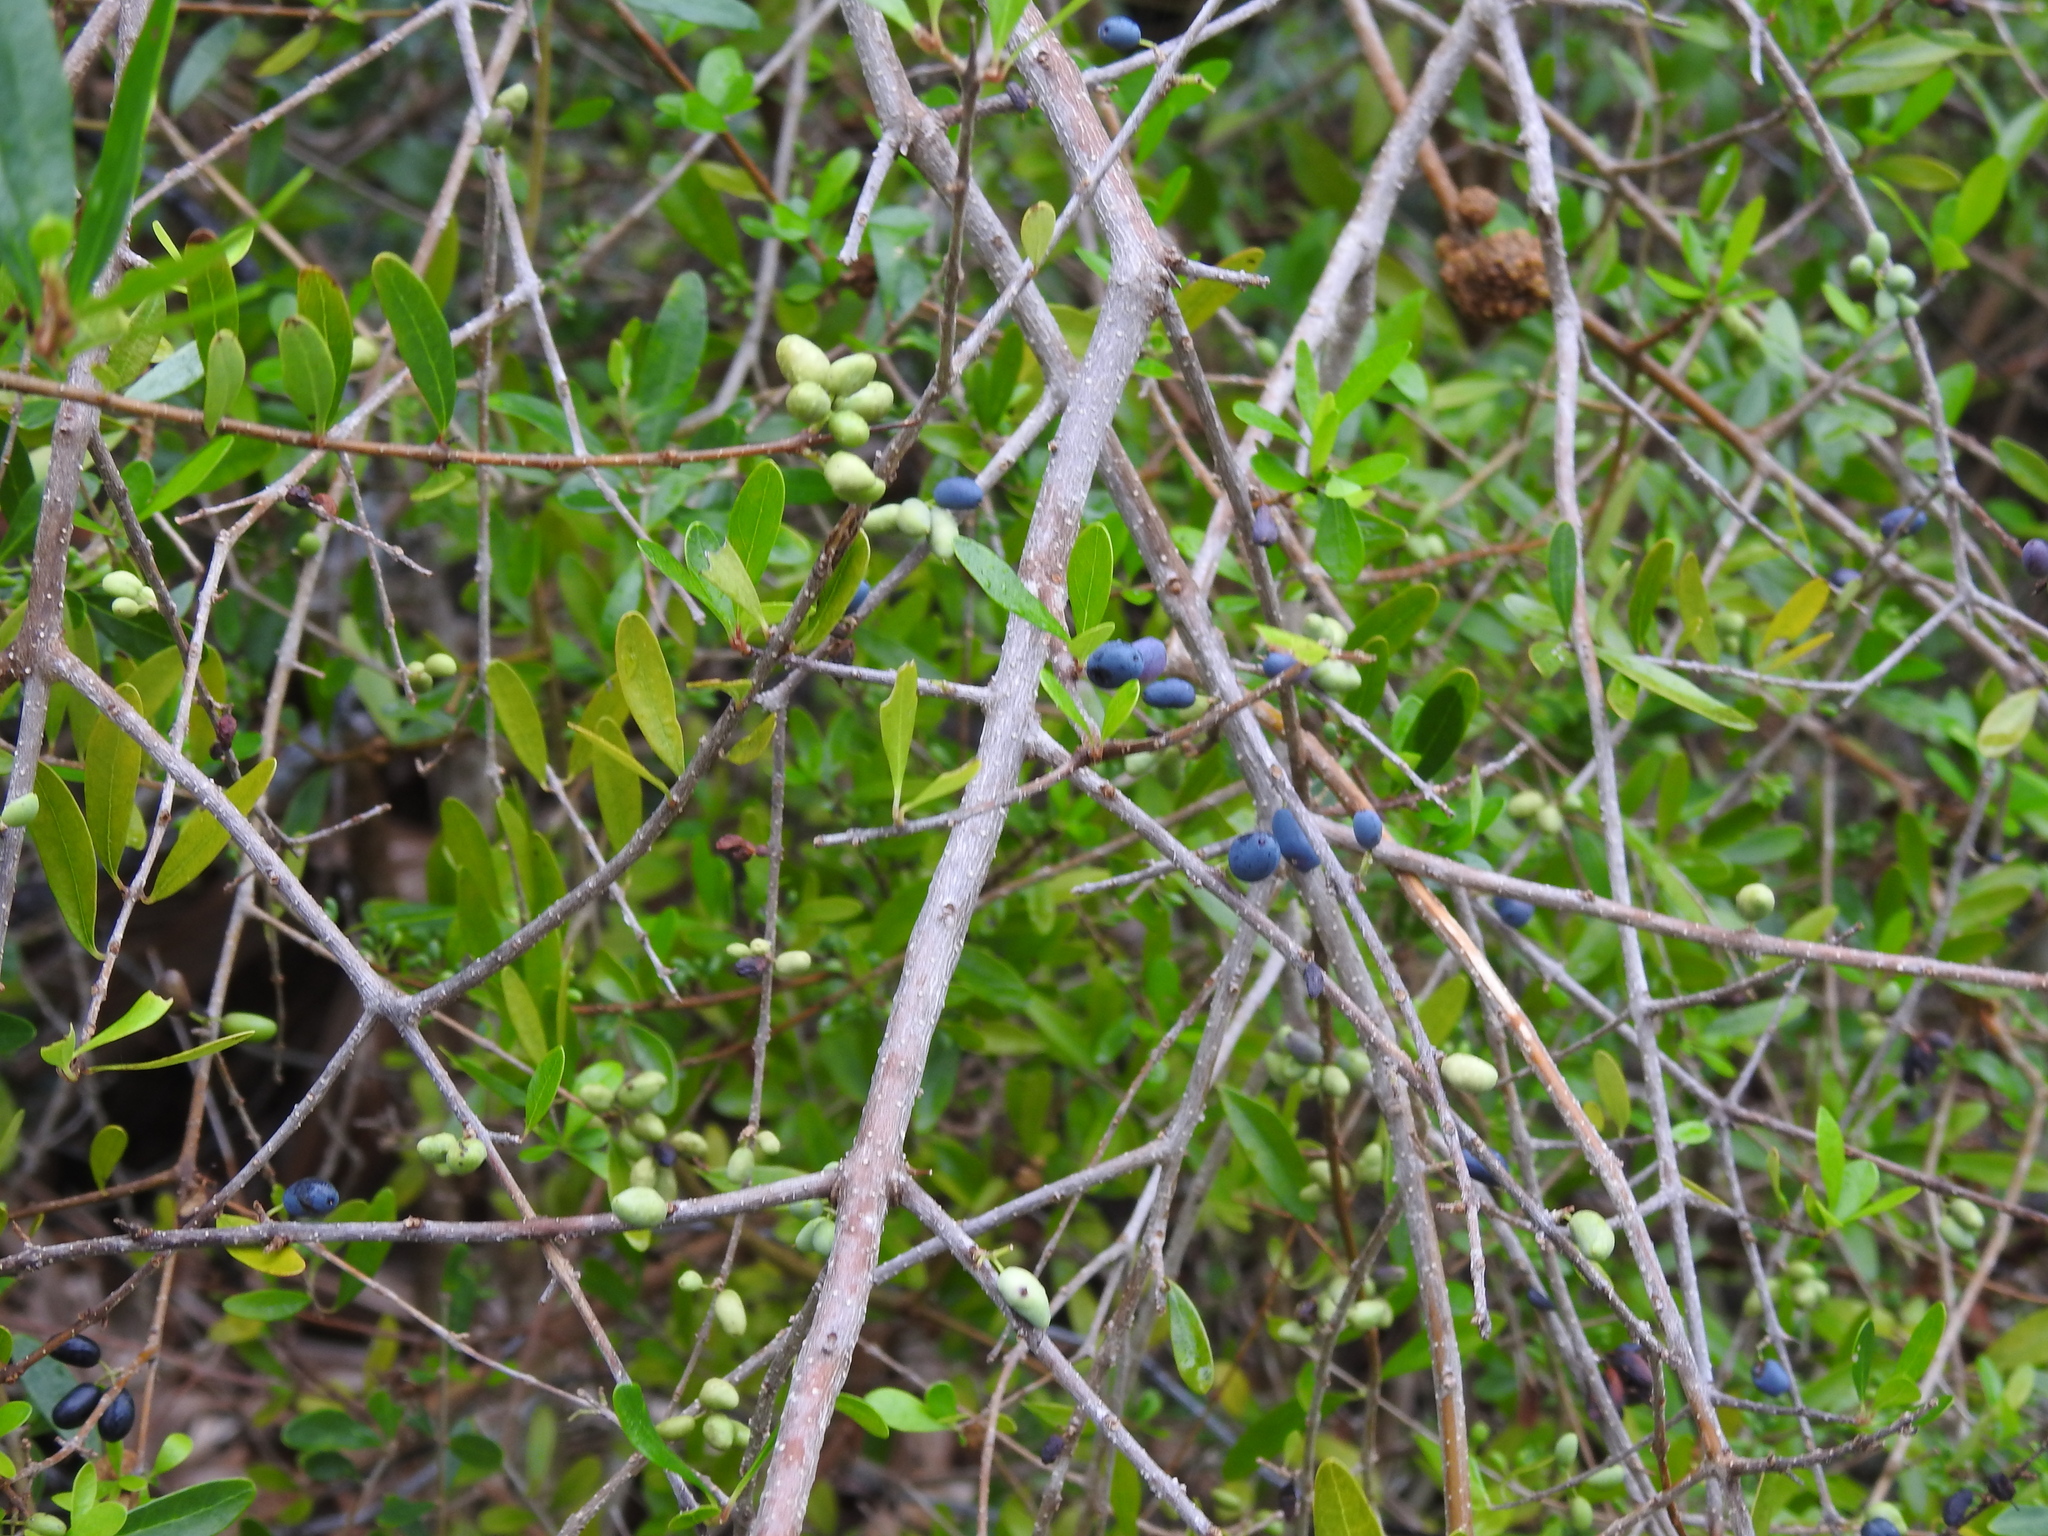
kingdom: Plantae
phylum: Tracheophyta
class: Magnoliopsida
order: Lamiales
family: Oleaceae
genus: Forestiera
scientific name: Forestiera segregata
